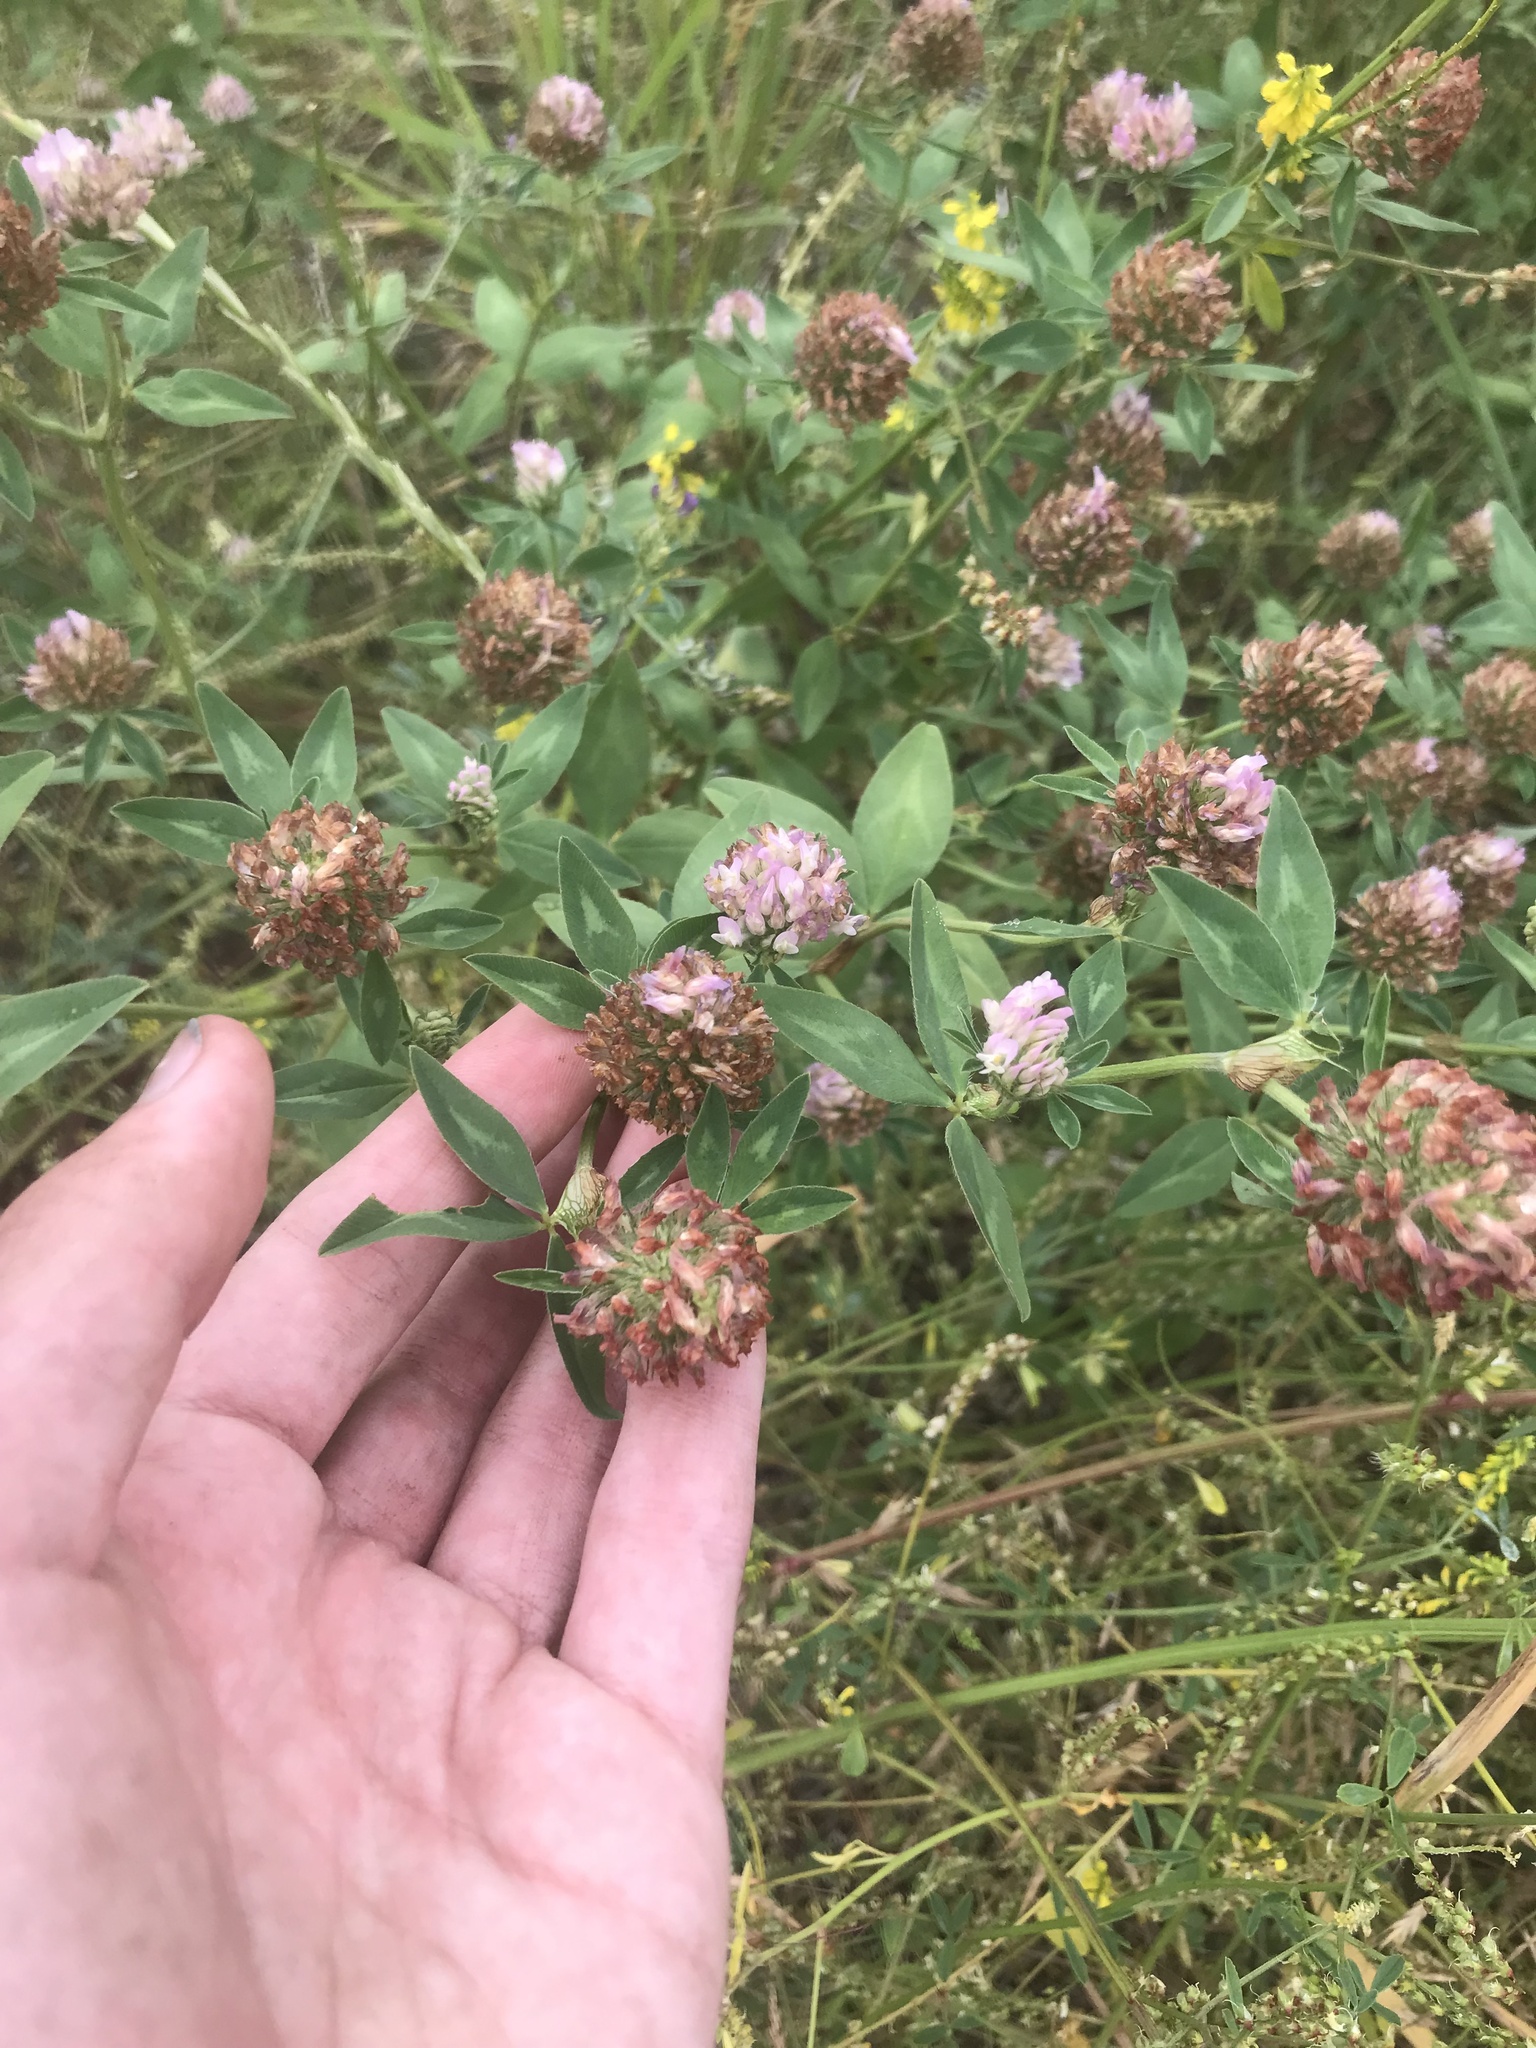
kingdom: Plantae
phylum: Tracheophyta
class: Magnoliopsida
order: Fabales
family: Fabaceae
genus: Trifolium
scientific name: Trifolium pratense
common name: Red clover
